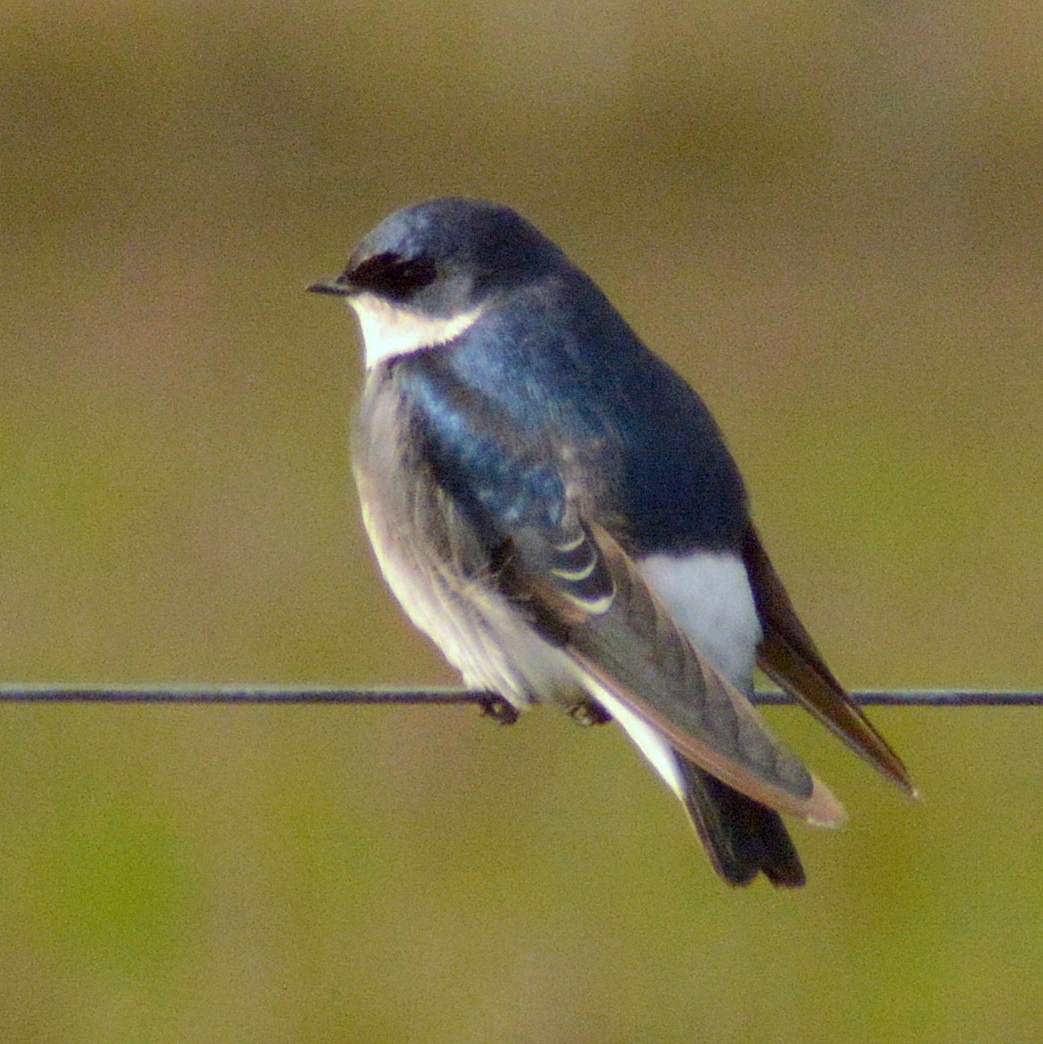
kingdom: Animalia
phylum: Chordata
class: Aves
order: Passeriformes
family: Hirundinidae
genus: Tachycineta
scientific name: Tachycineta leucopyga
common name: Chilean swallow
